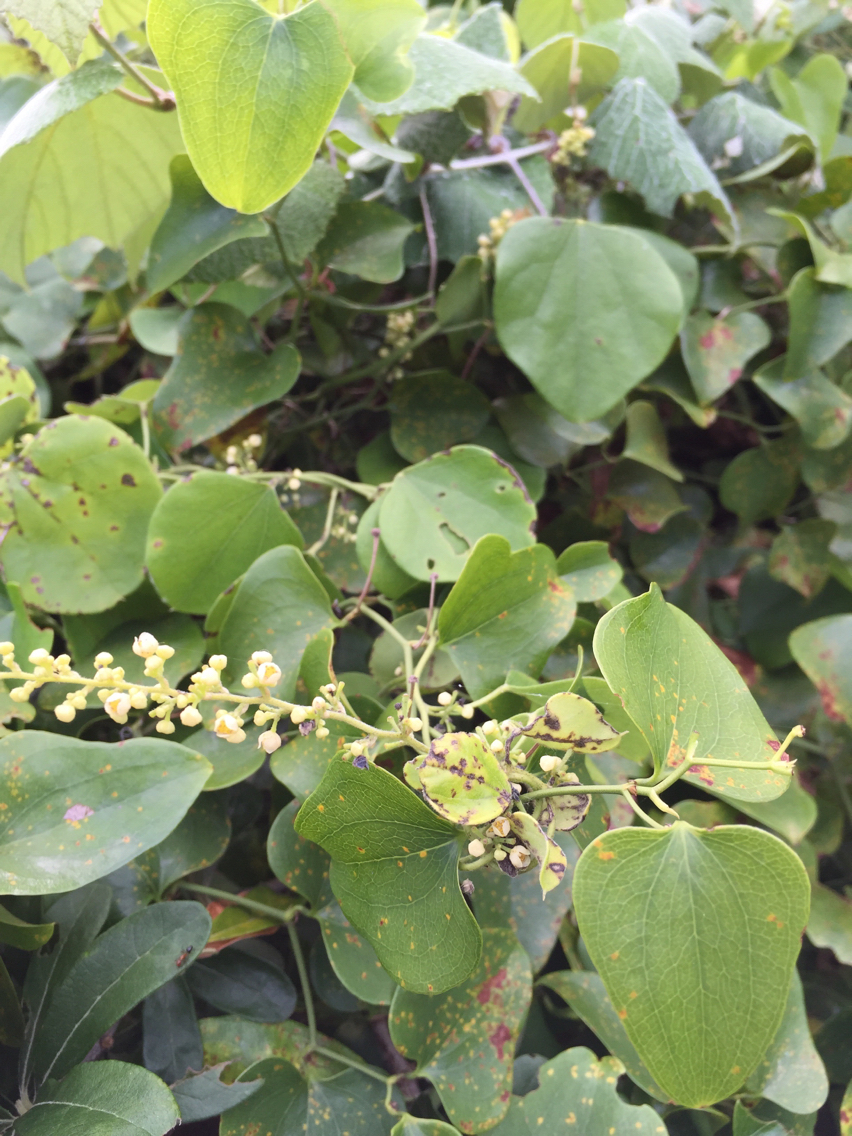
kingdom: Plantae
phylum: Tracheophyta
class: Magnoliopsida
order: Ranunculales
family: Menispermaceae
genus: Cocculus
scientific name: Cocculus carolinus
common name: Carolina moonseed
